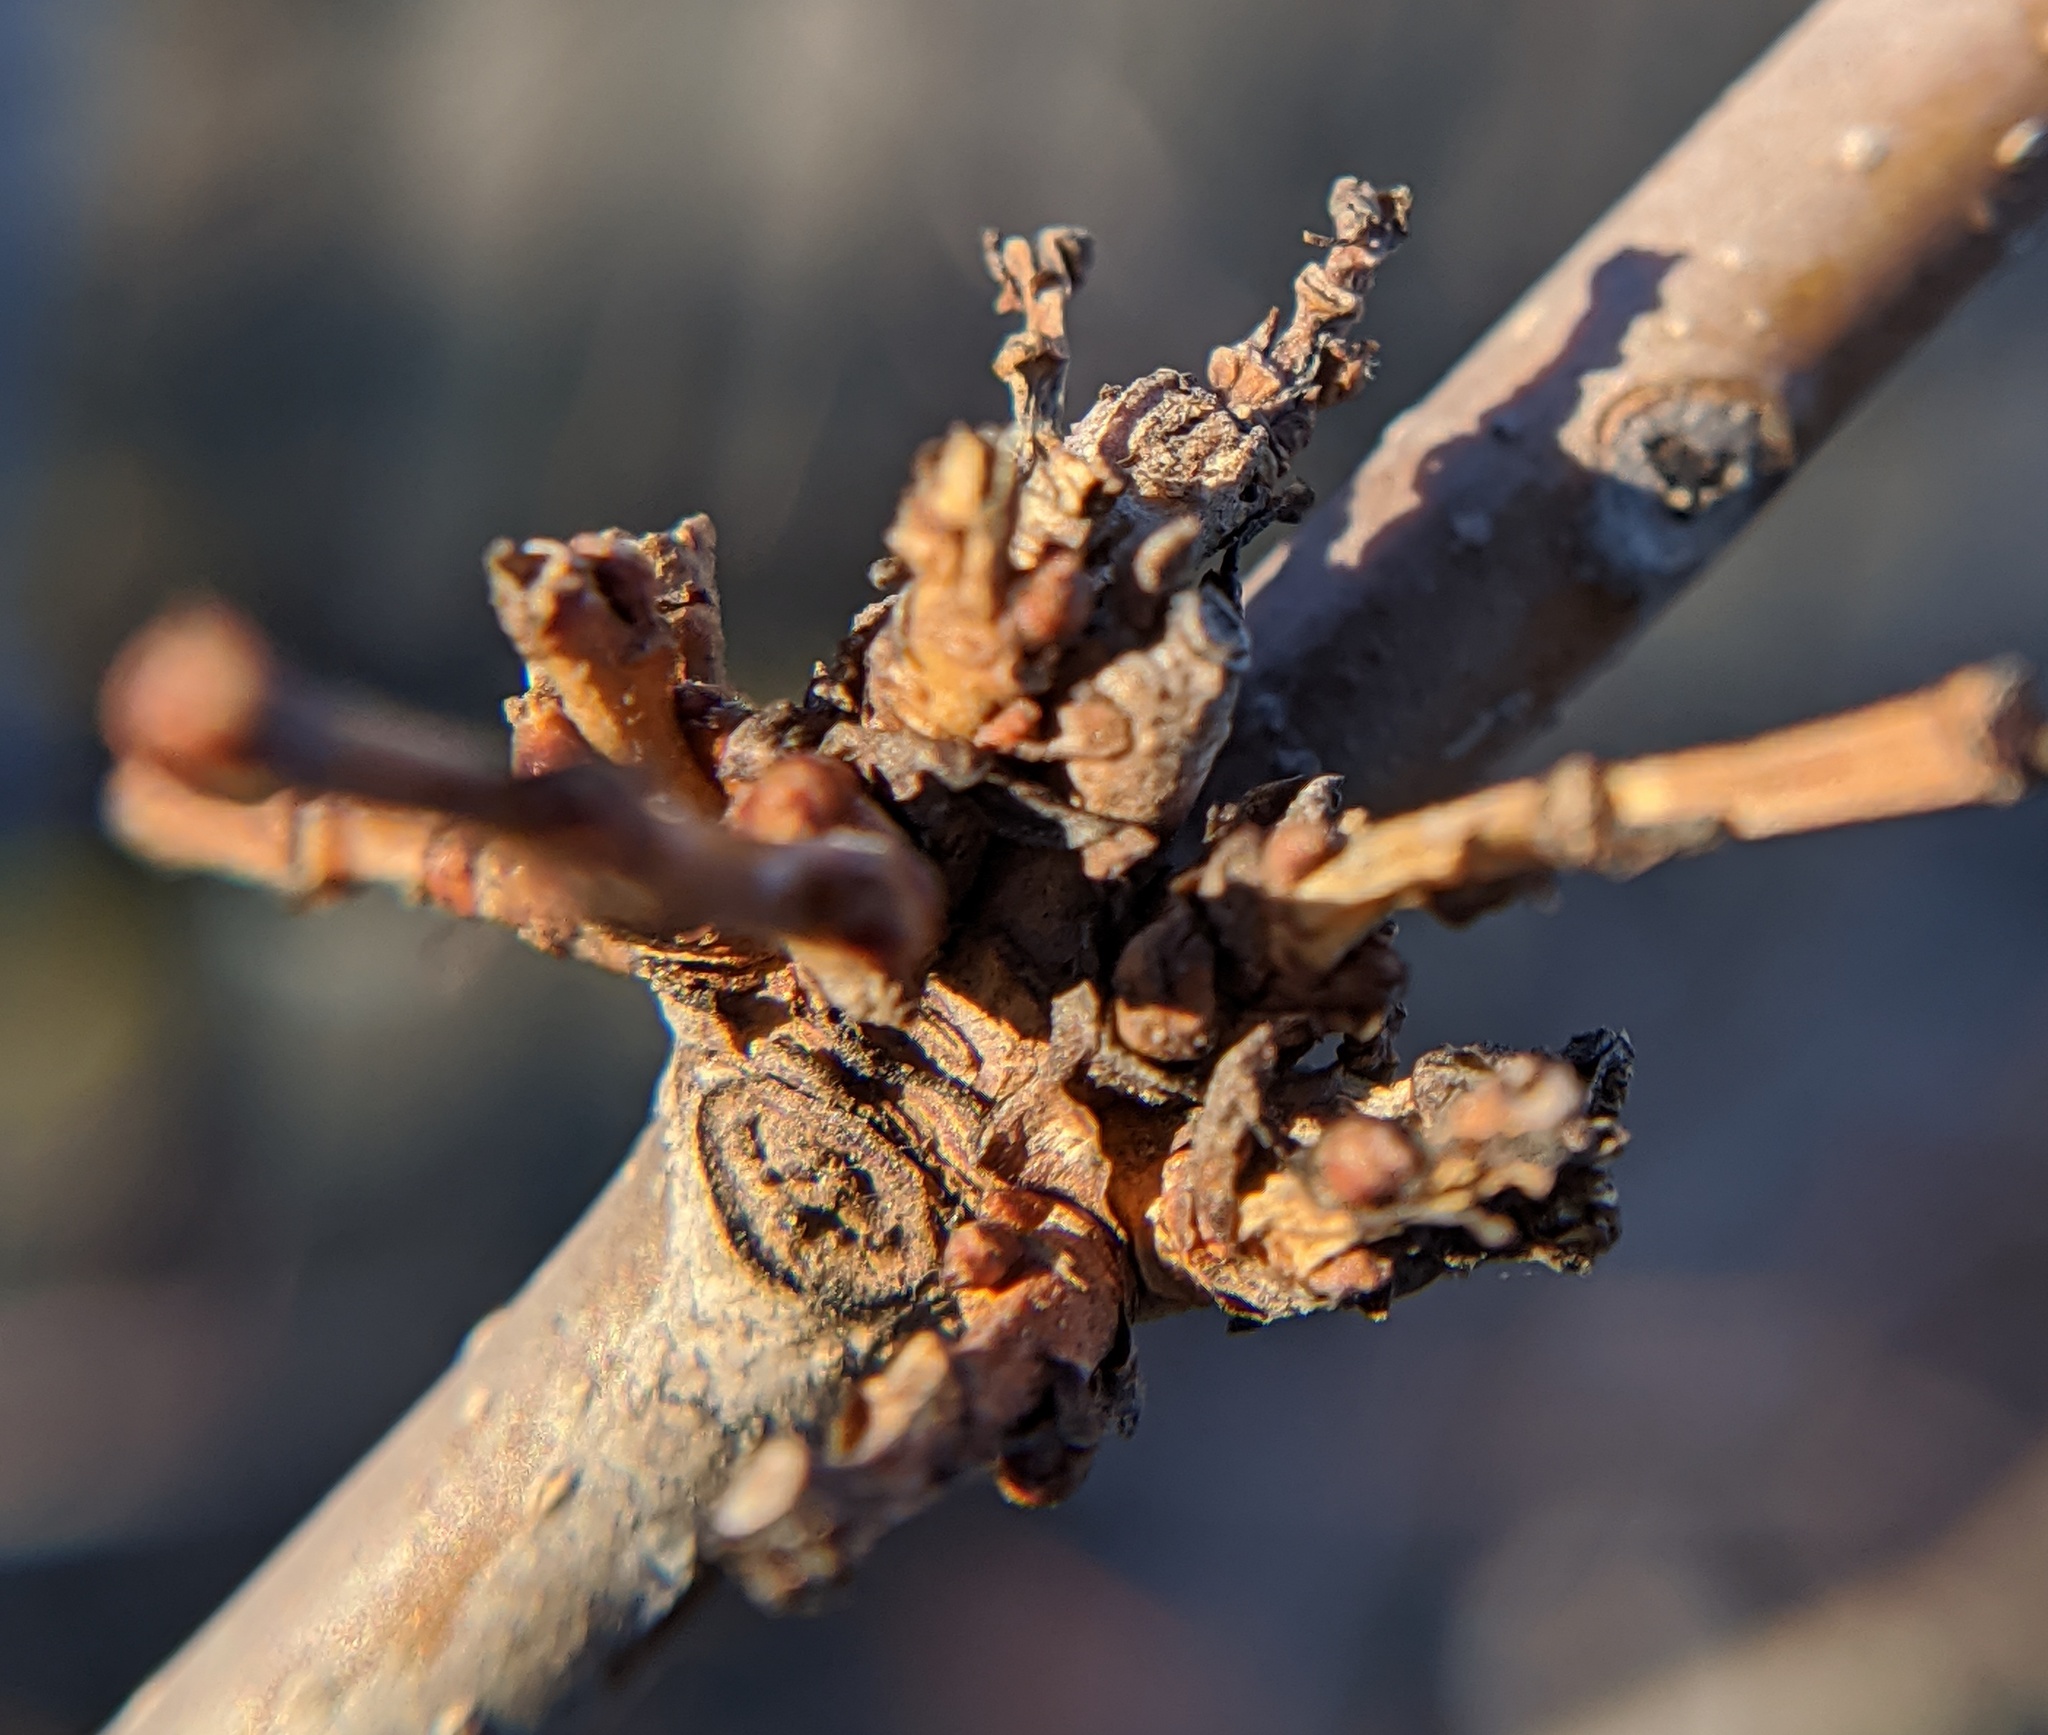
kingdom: Animalia
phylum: Arthropoda
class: Arachnida
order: Trombidiformes
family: Eriophyidae
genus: Aceria
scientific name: Aceria mori
